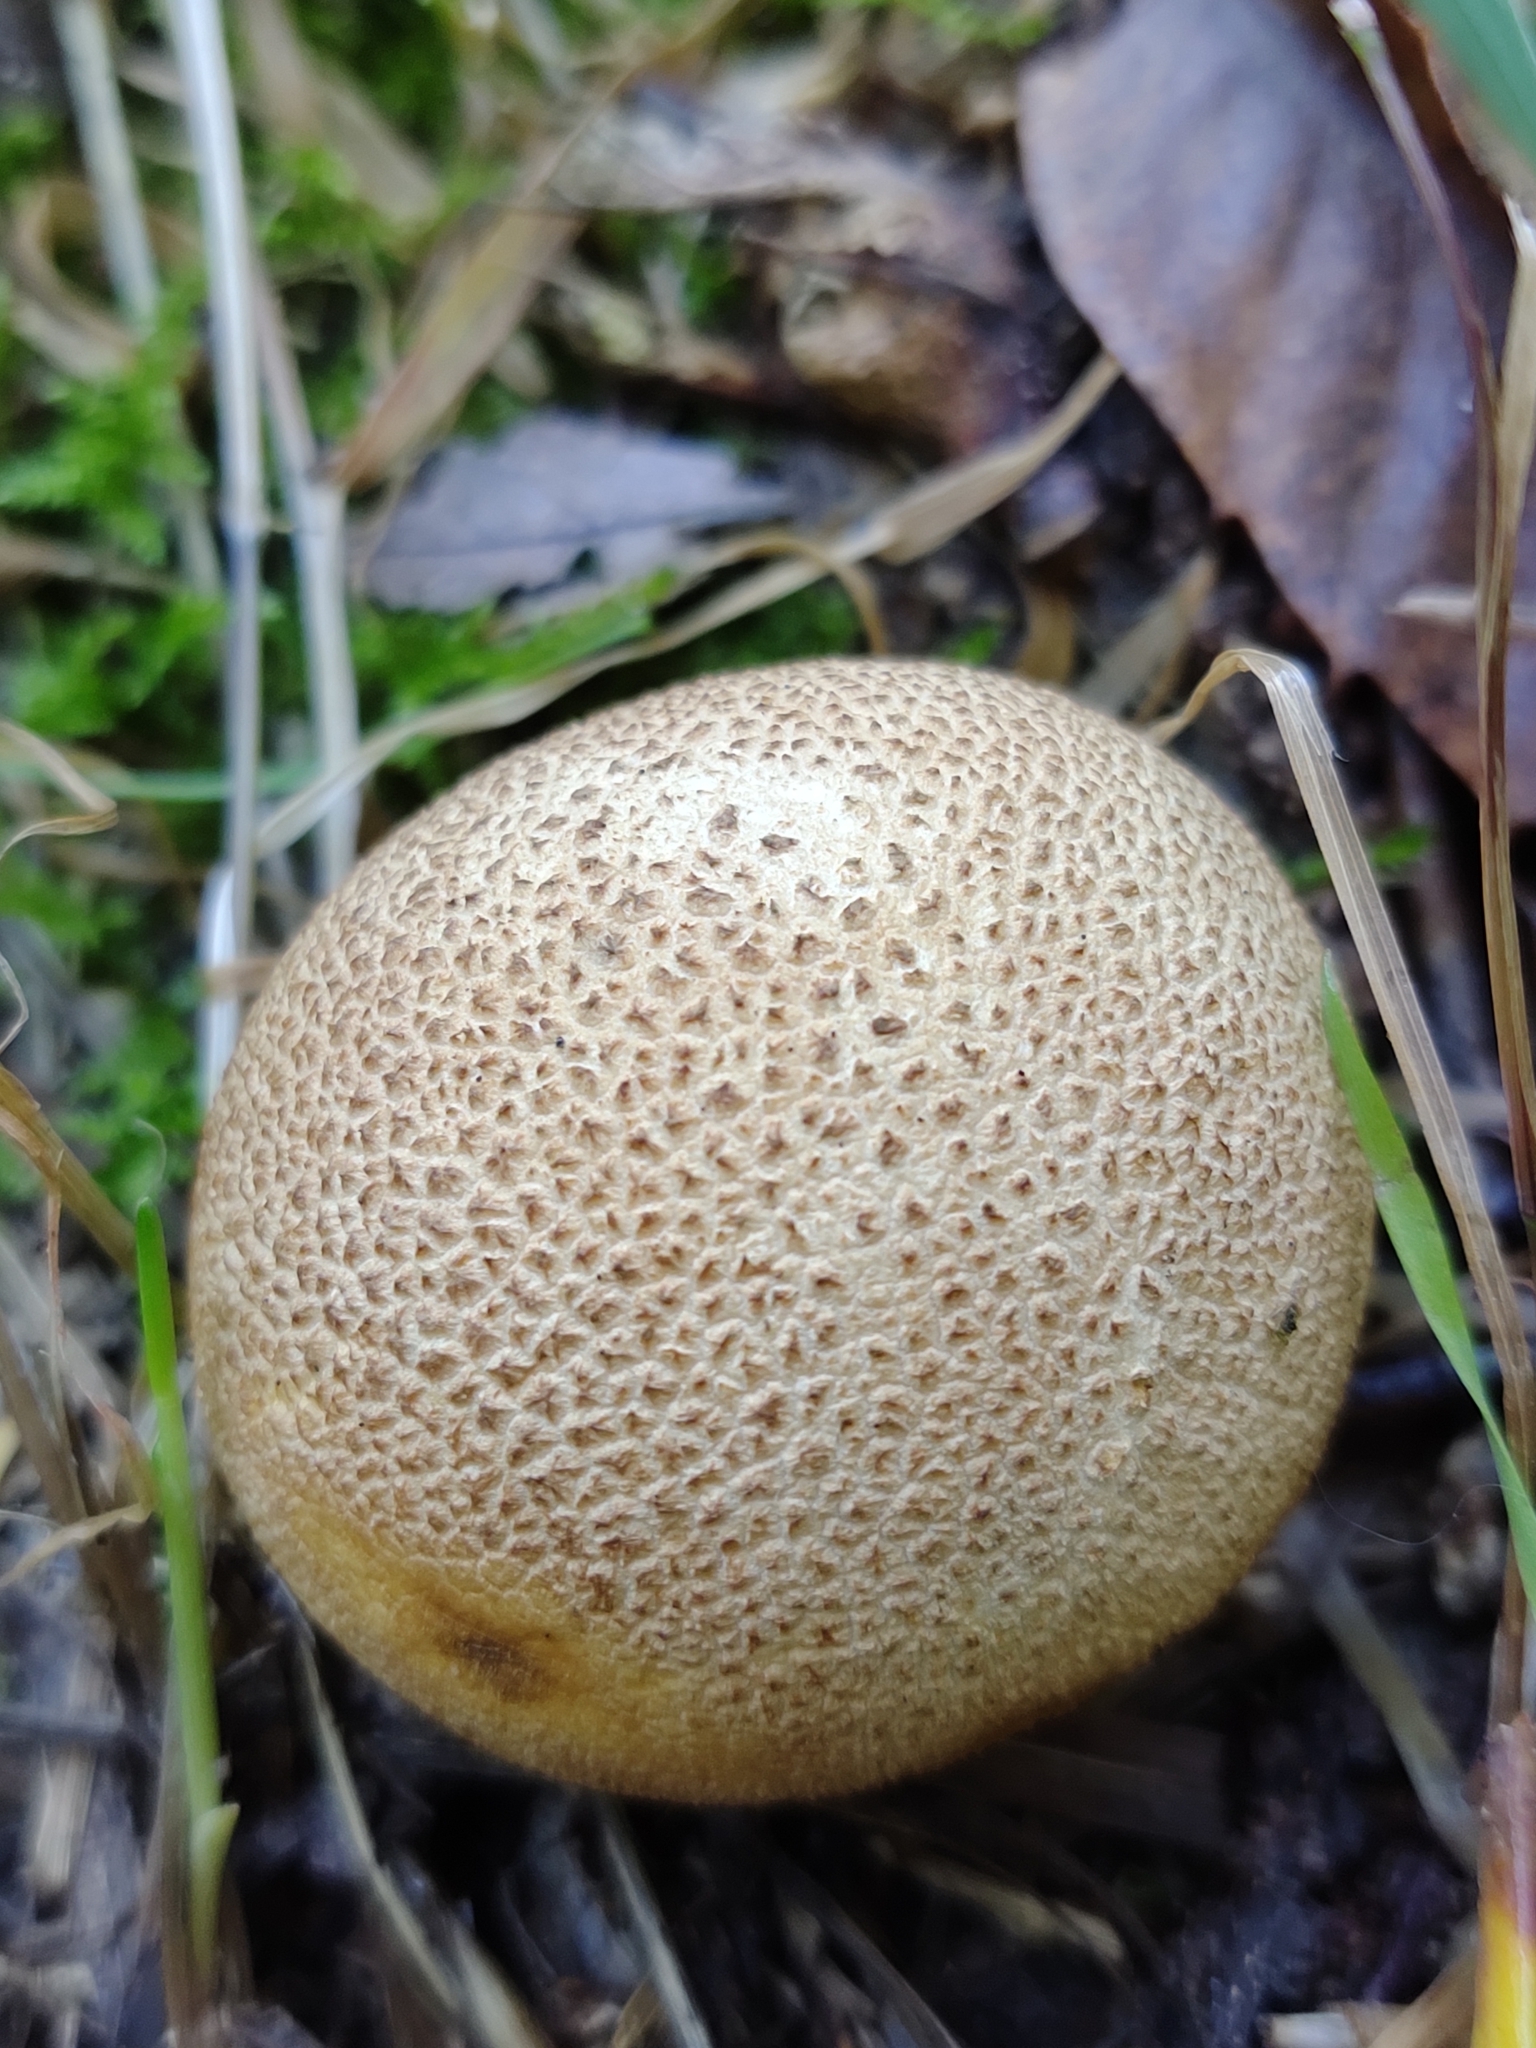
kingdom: Fungi
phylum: Basidiomycota
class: Agaricomycetes
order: Boletales
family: Sclerodermataceae
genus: Scleroderma
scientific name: Scleroderma citrinum
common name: Common earthball
